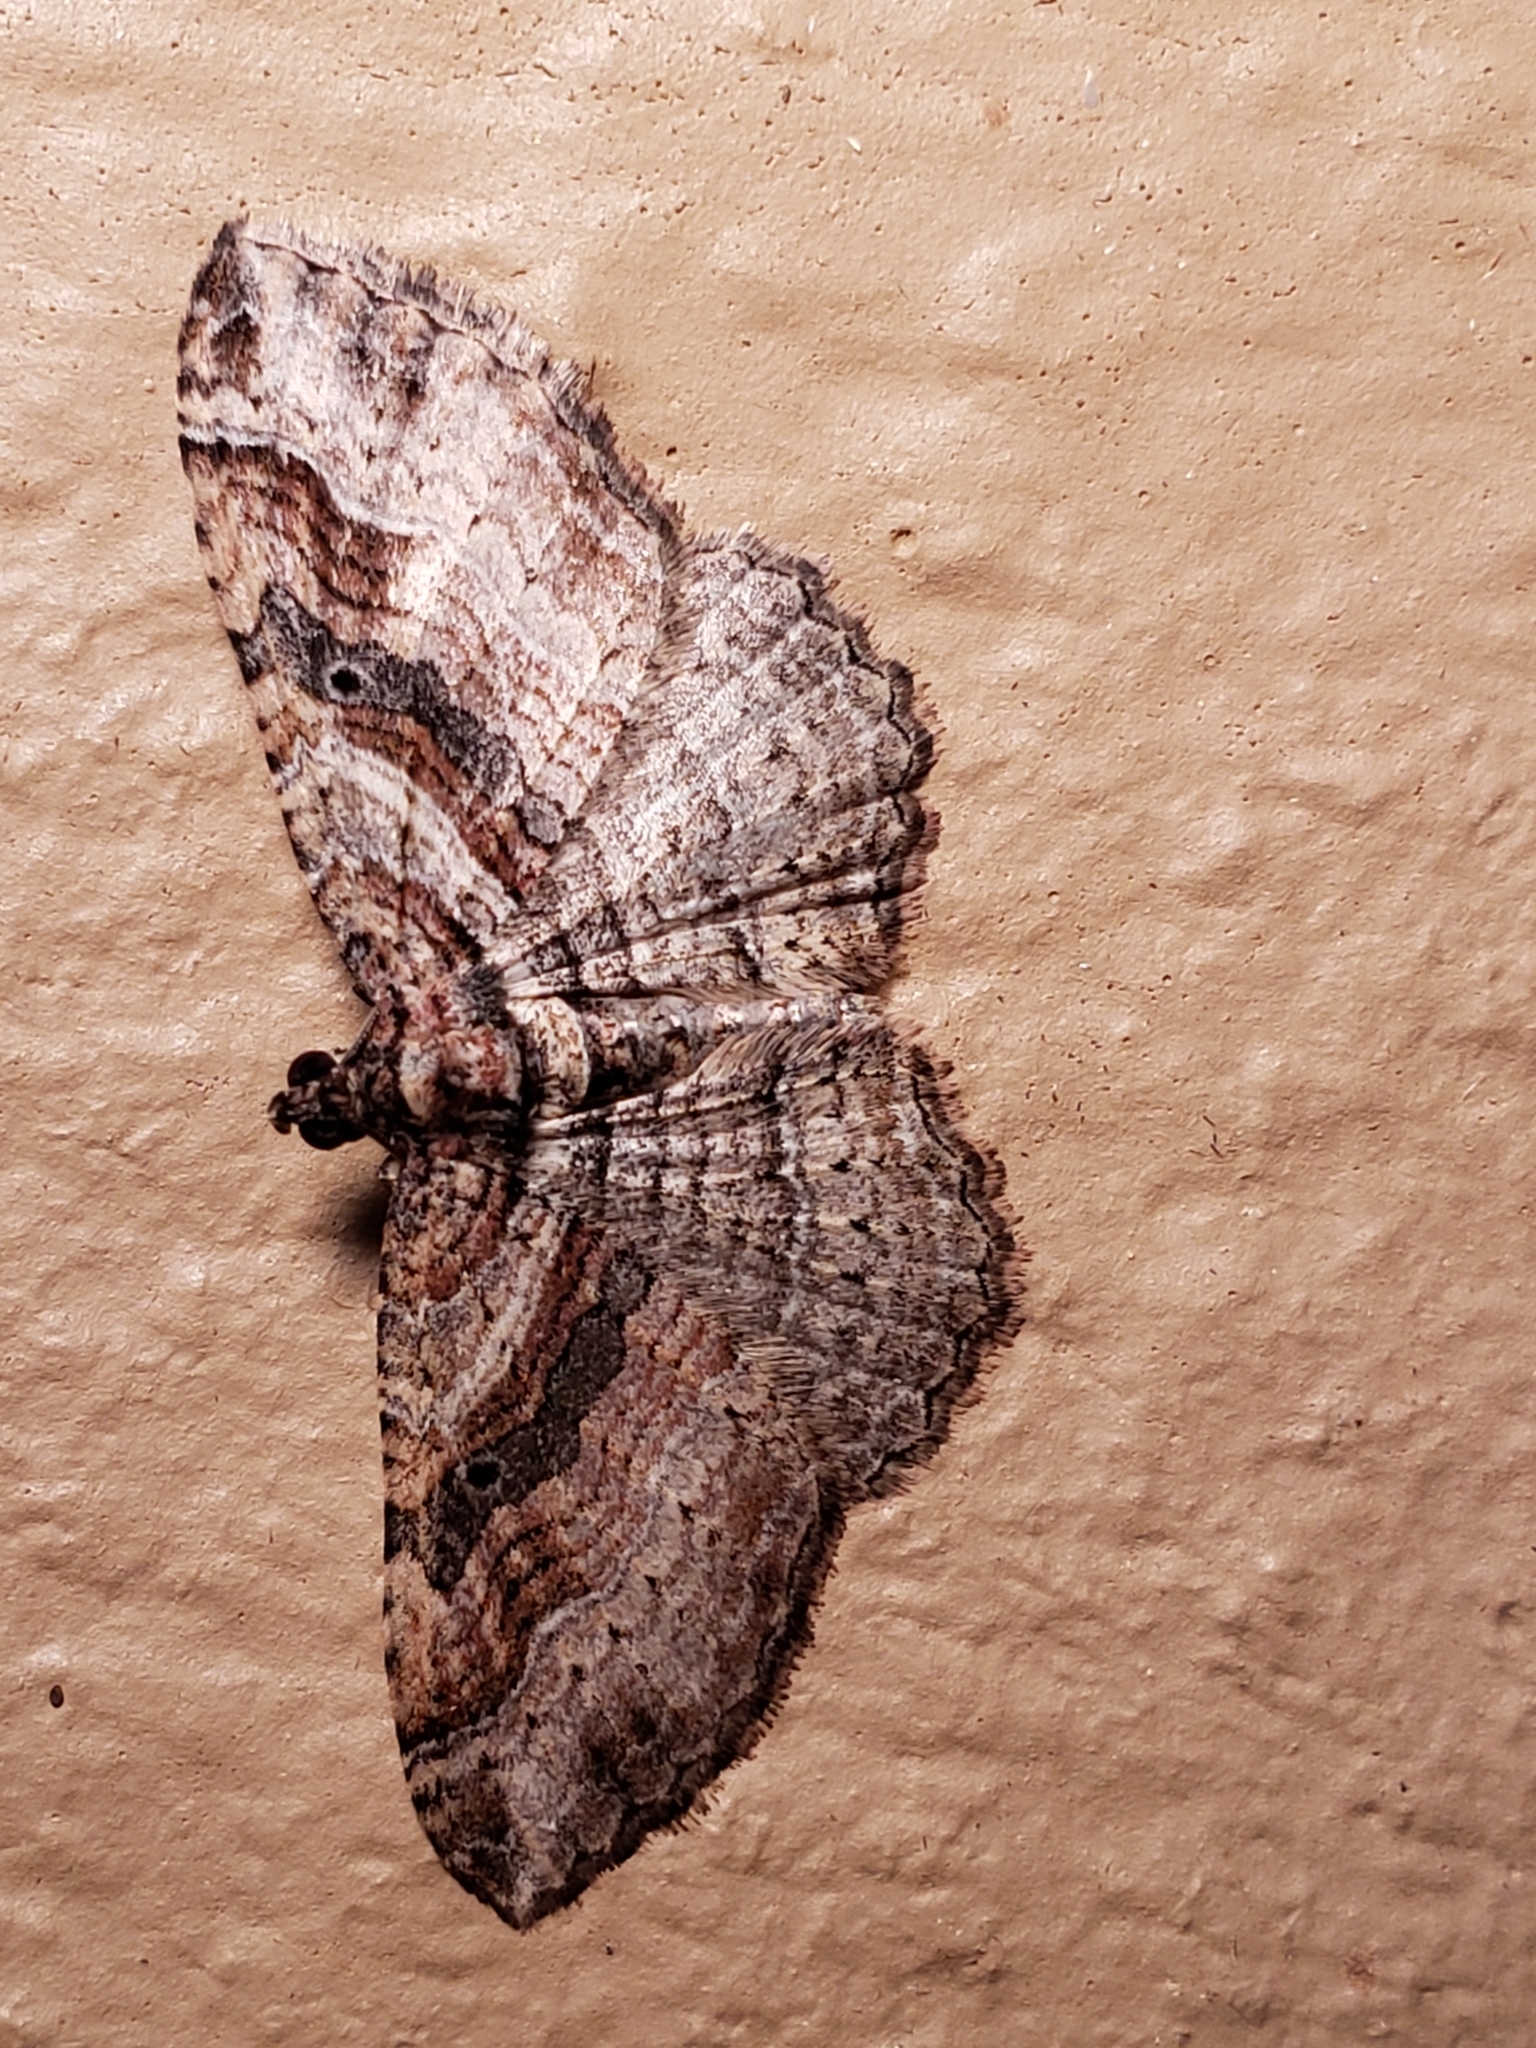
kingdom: Animalia
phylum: Arthropoda
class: Insecta
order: Lepidoptera
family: Geometridae
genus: Costaconvexa
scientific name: Costaconvexa centrostrigaria
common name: Bent-line carpet
